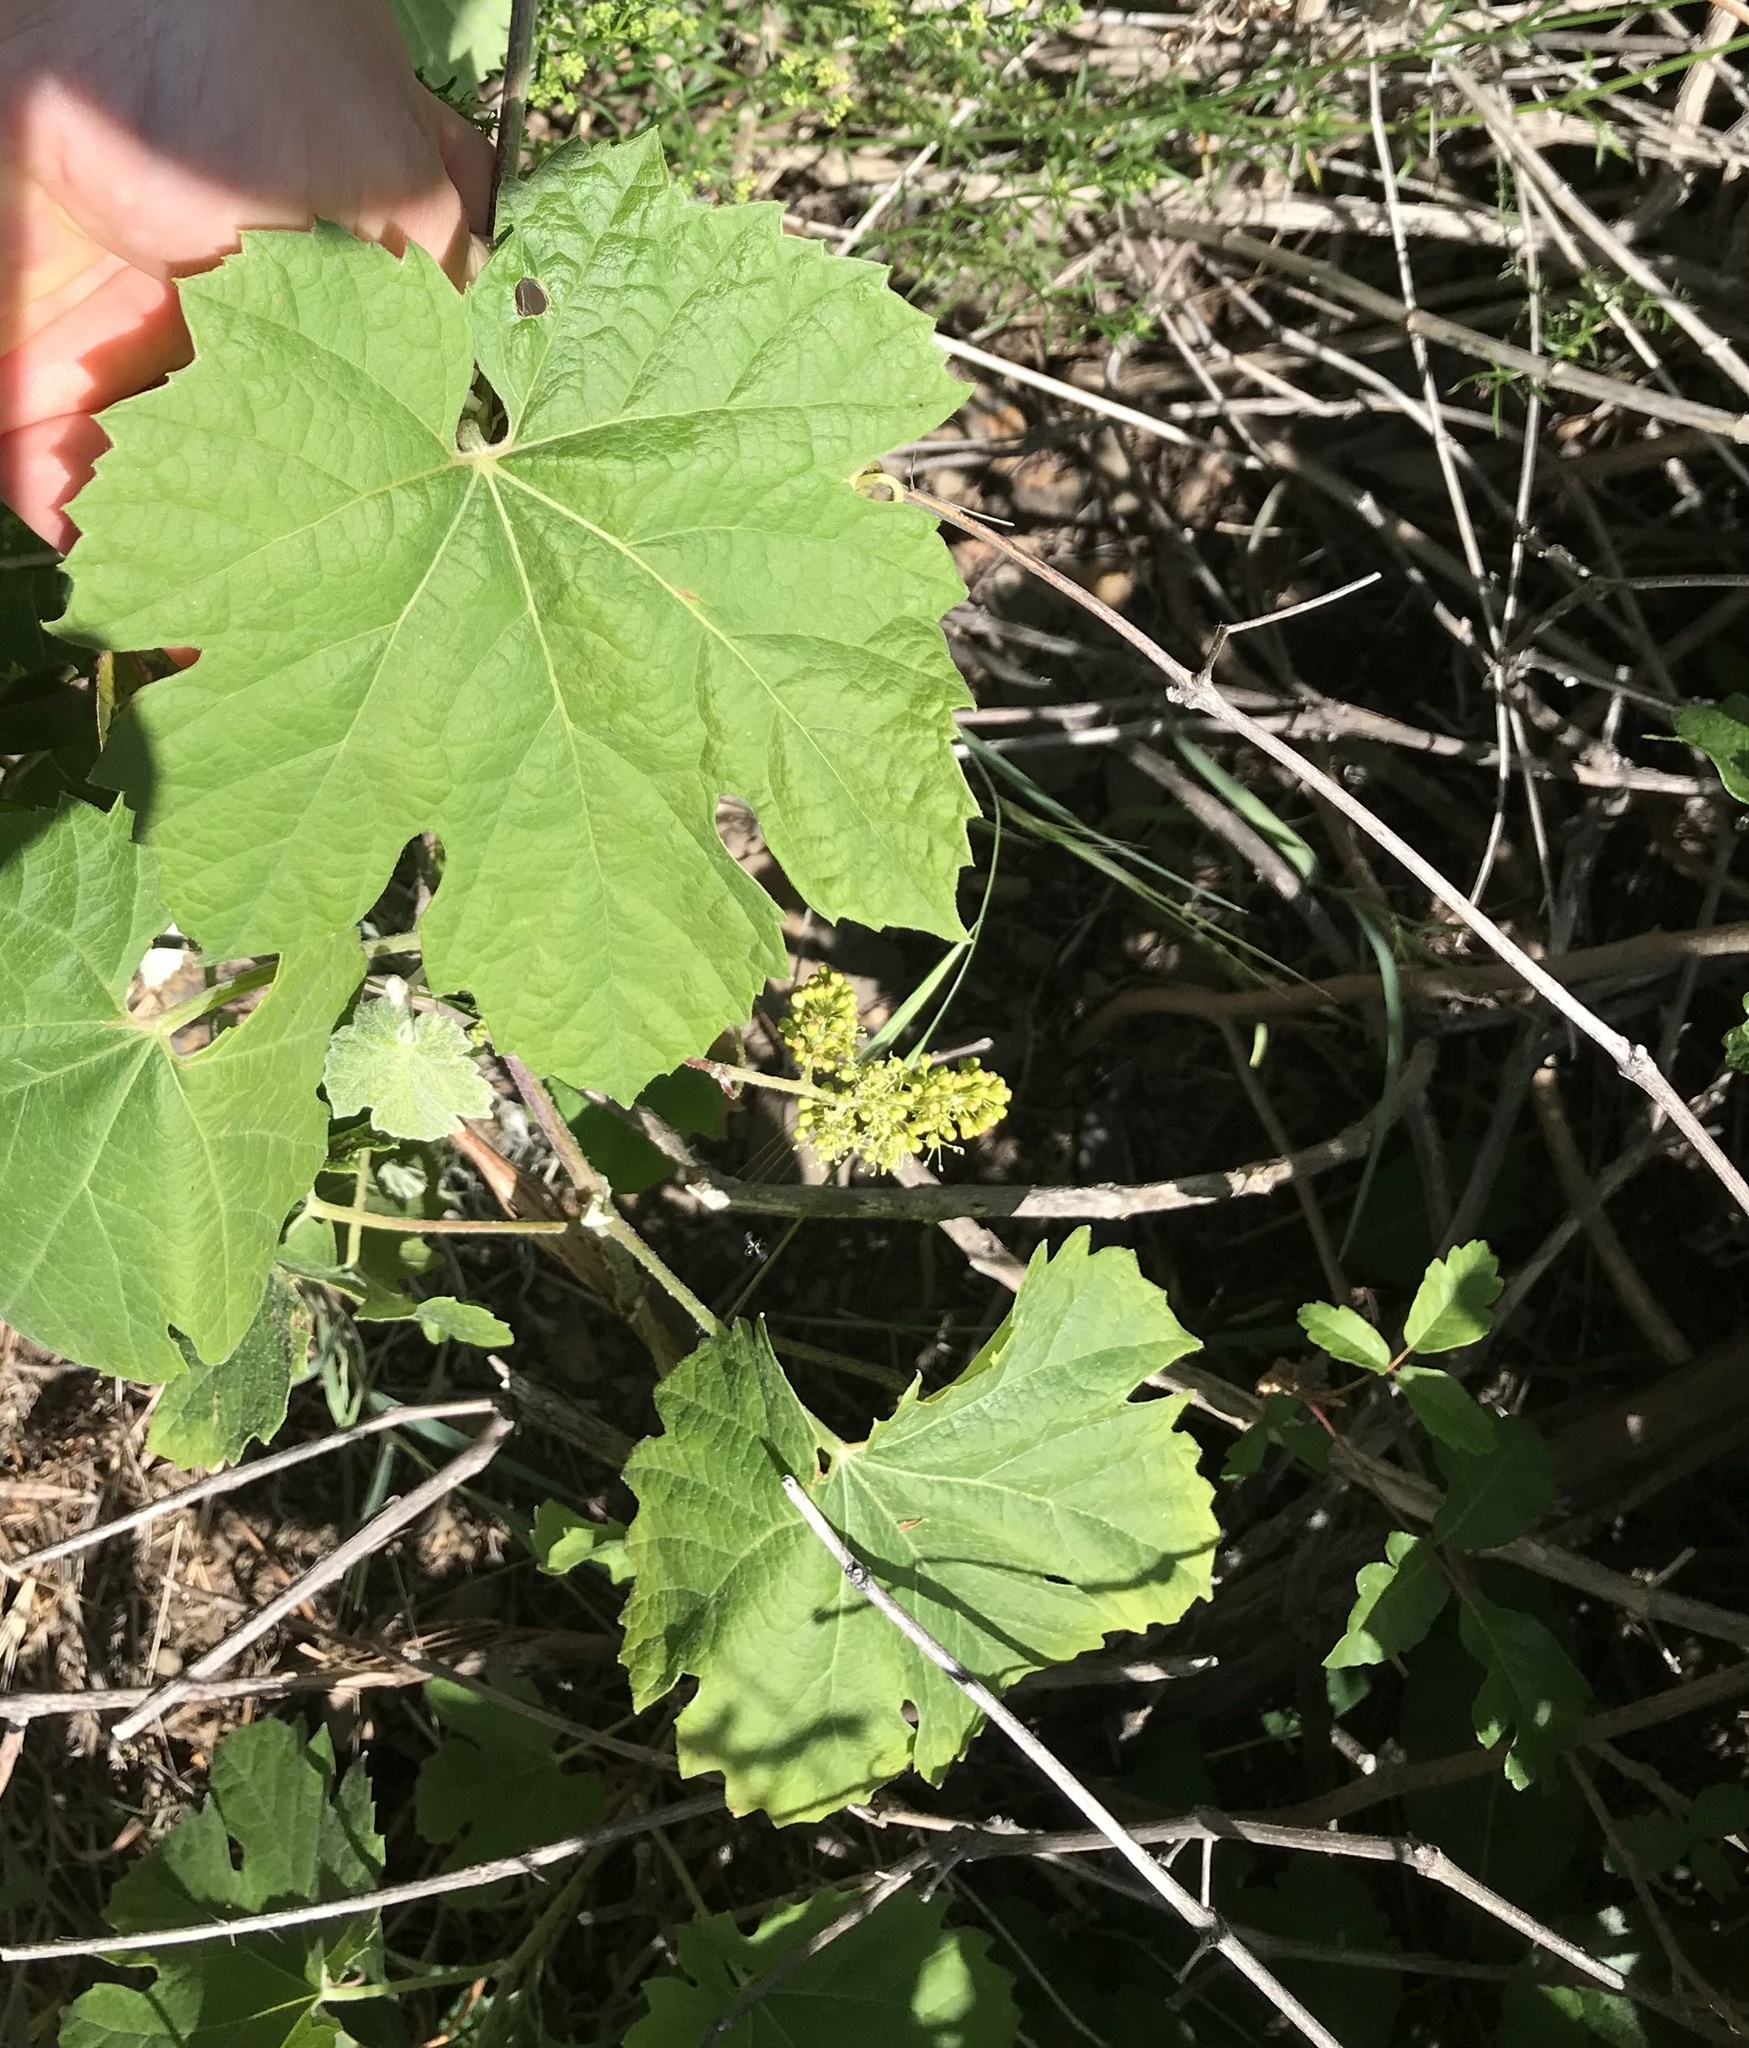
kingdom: Plantae
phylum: Tracheophyta
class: Magnoliopsida
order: Vitales
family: Vitaceae
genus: Vitis
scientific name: Vitis girdiana
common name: Desert wild grape
